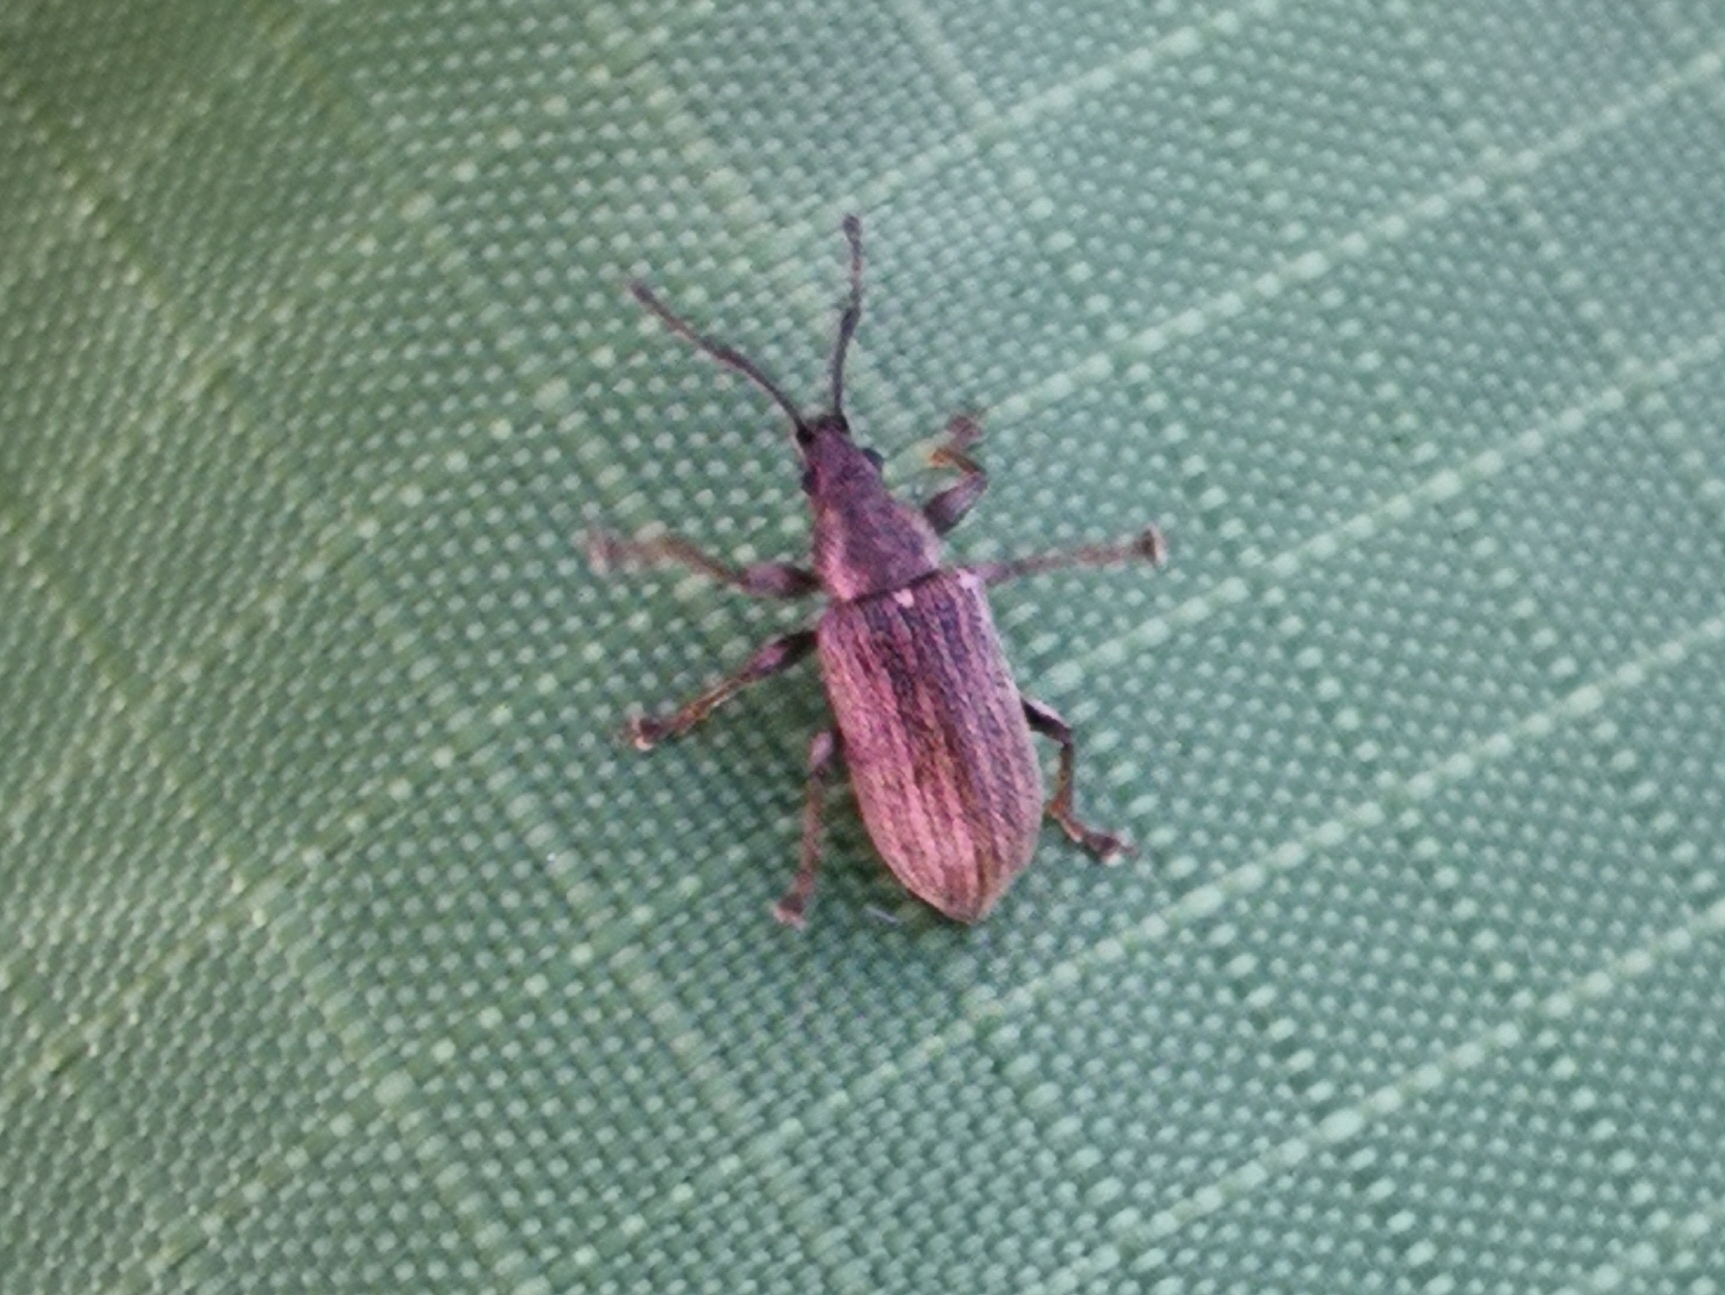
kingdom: Animalia
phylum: Arthropoda
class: Insecta
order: Coleoptera
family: Curculionidae
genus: Phyllobius
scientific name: Phyllobius pyri
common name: Common leaf weevil
